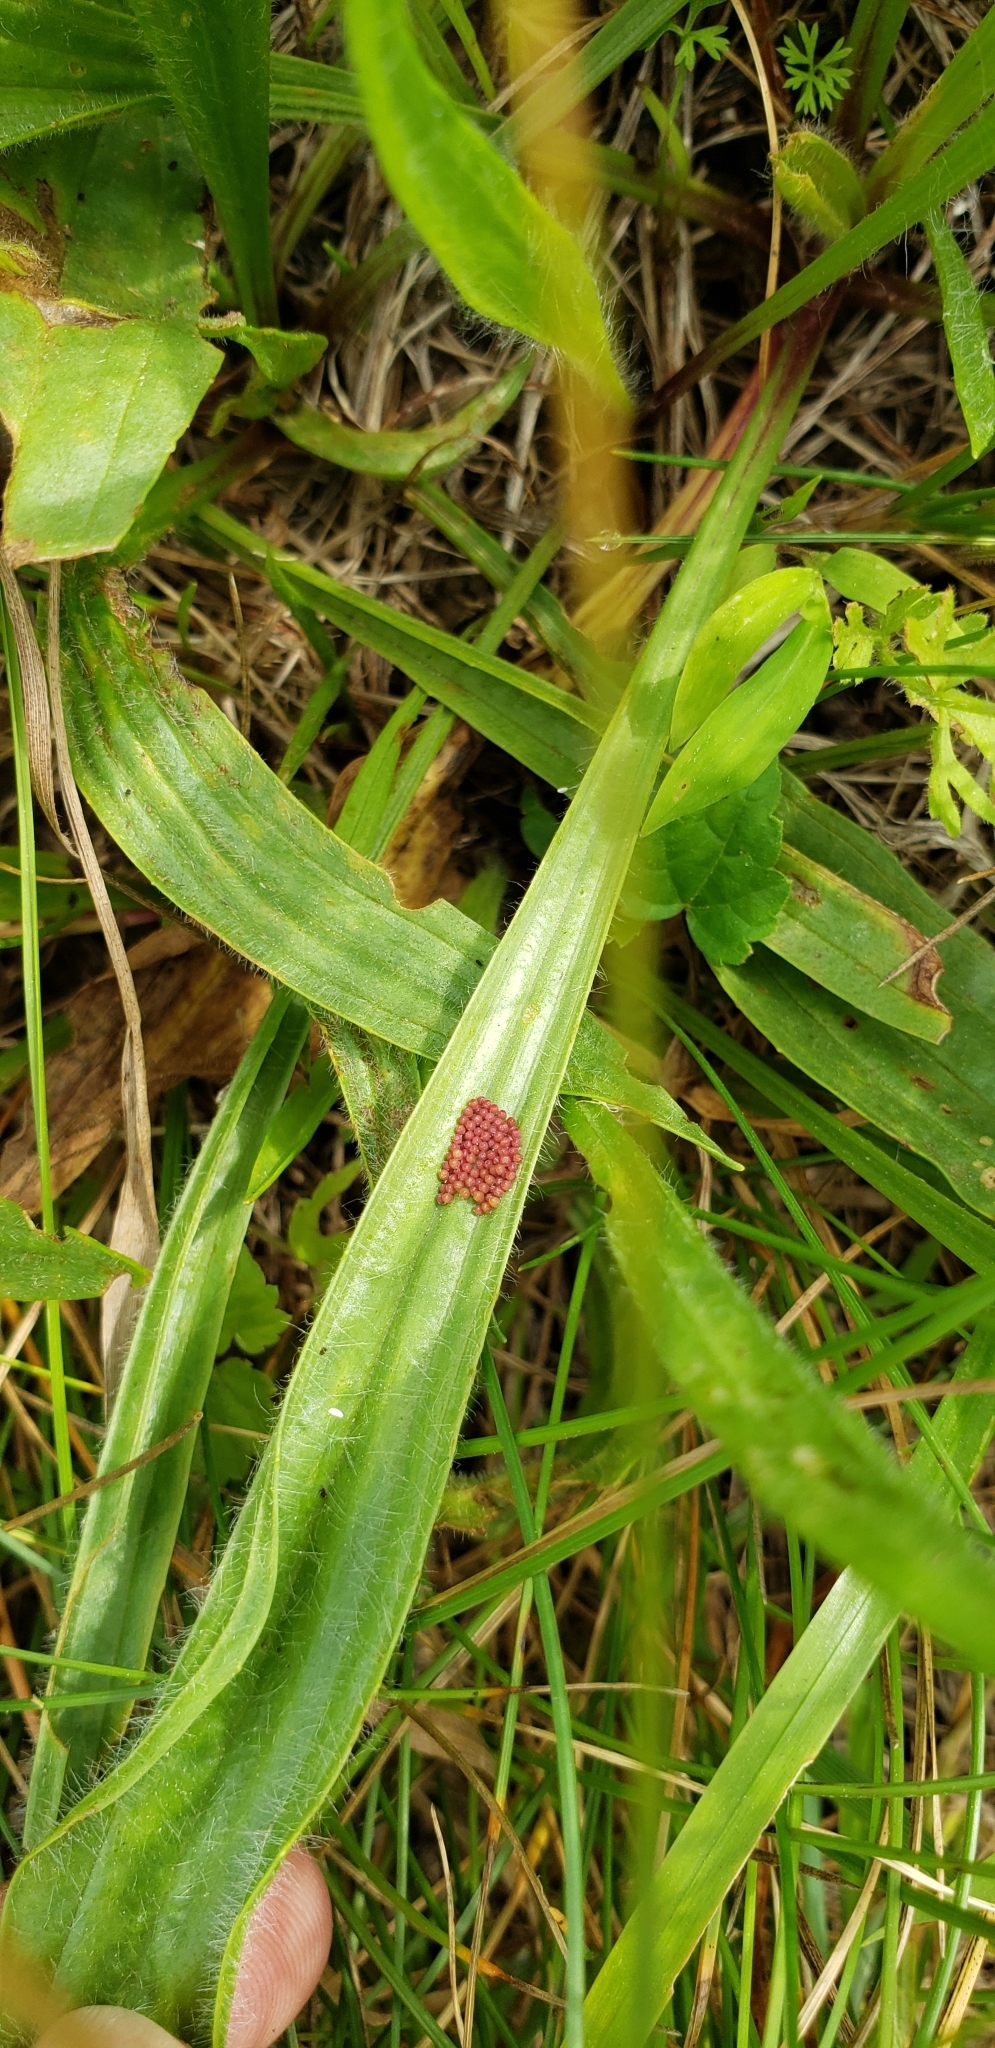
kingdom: Animalia
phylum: Arthropoda
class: Insecta
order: Lepidoptera
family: Nymphalidae
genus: Euphydryas
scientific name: Euphydryas phaeton
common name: Baltimore checkerspot
